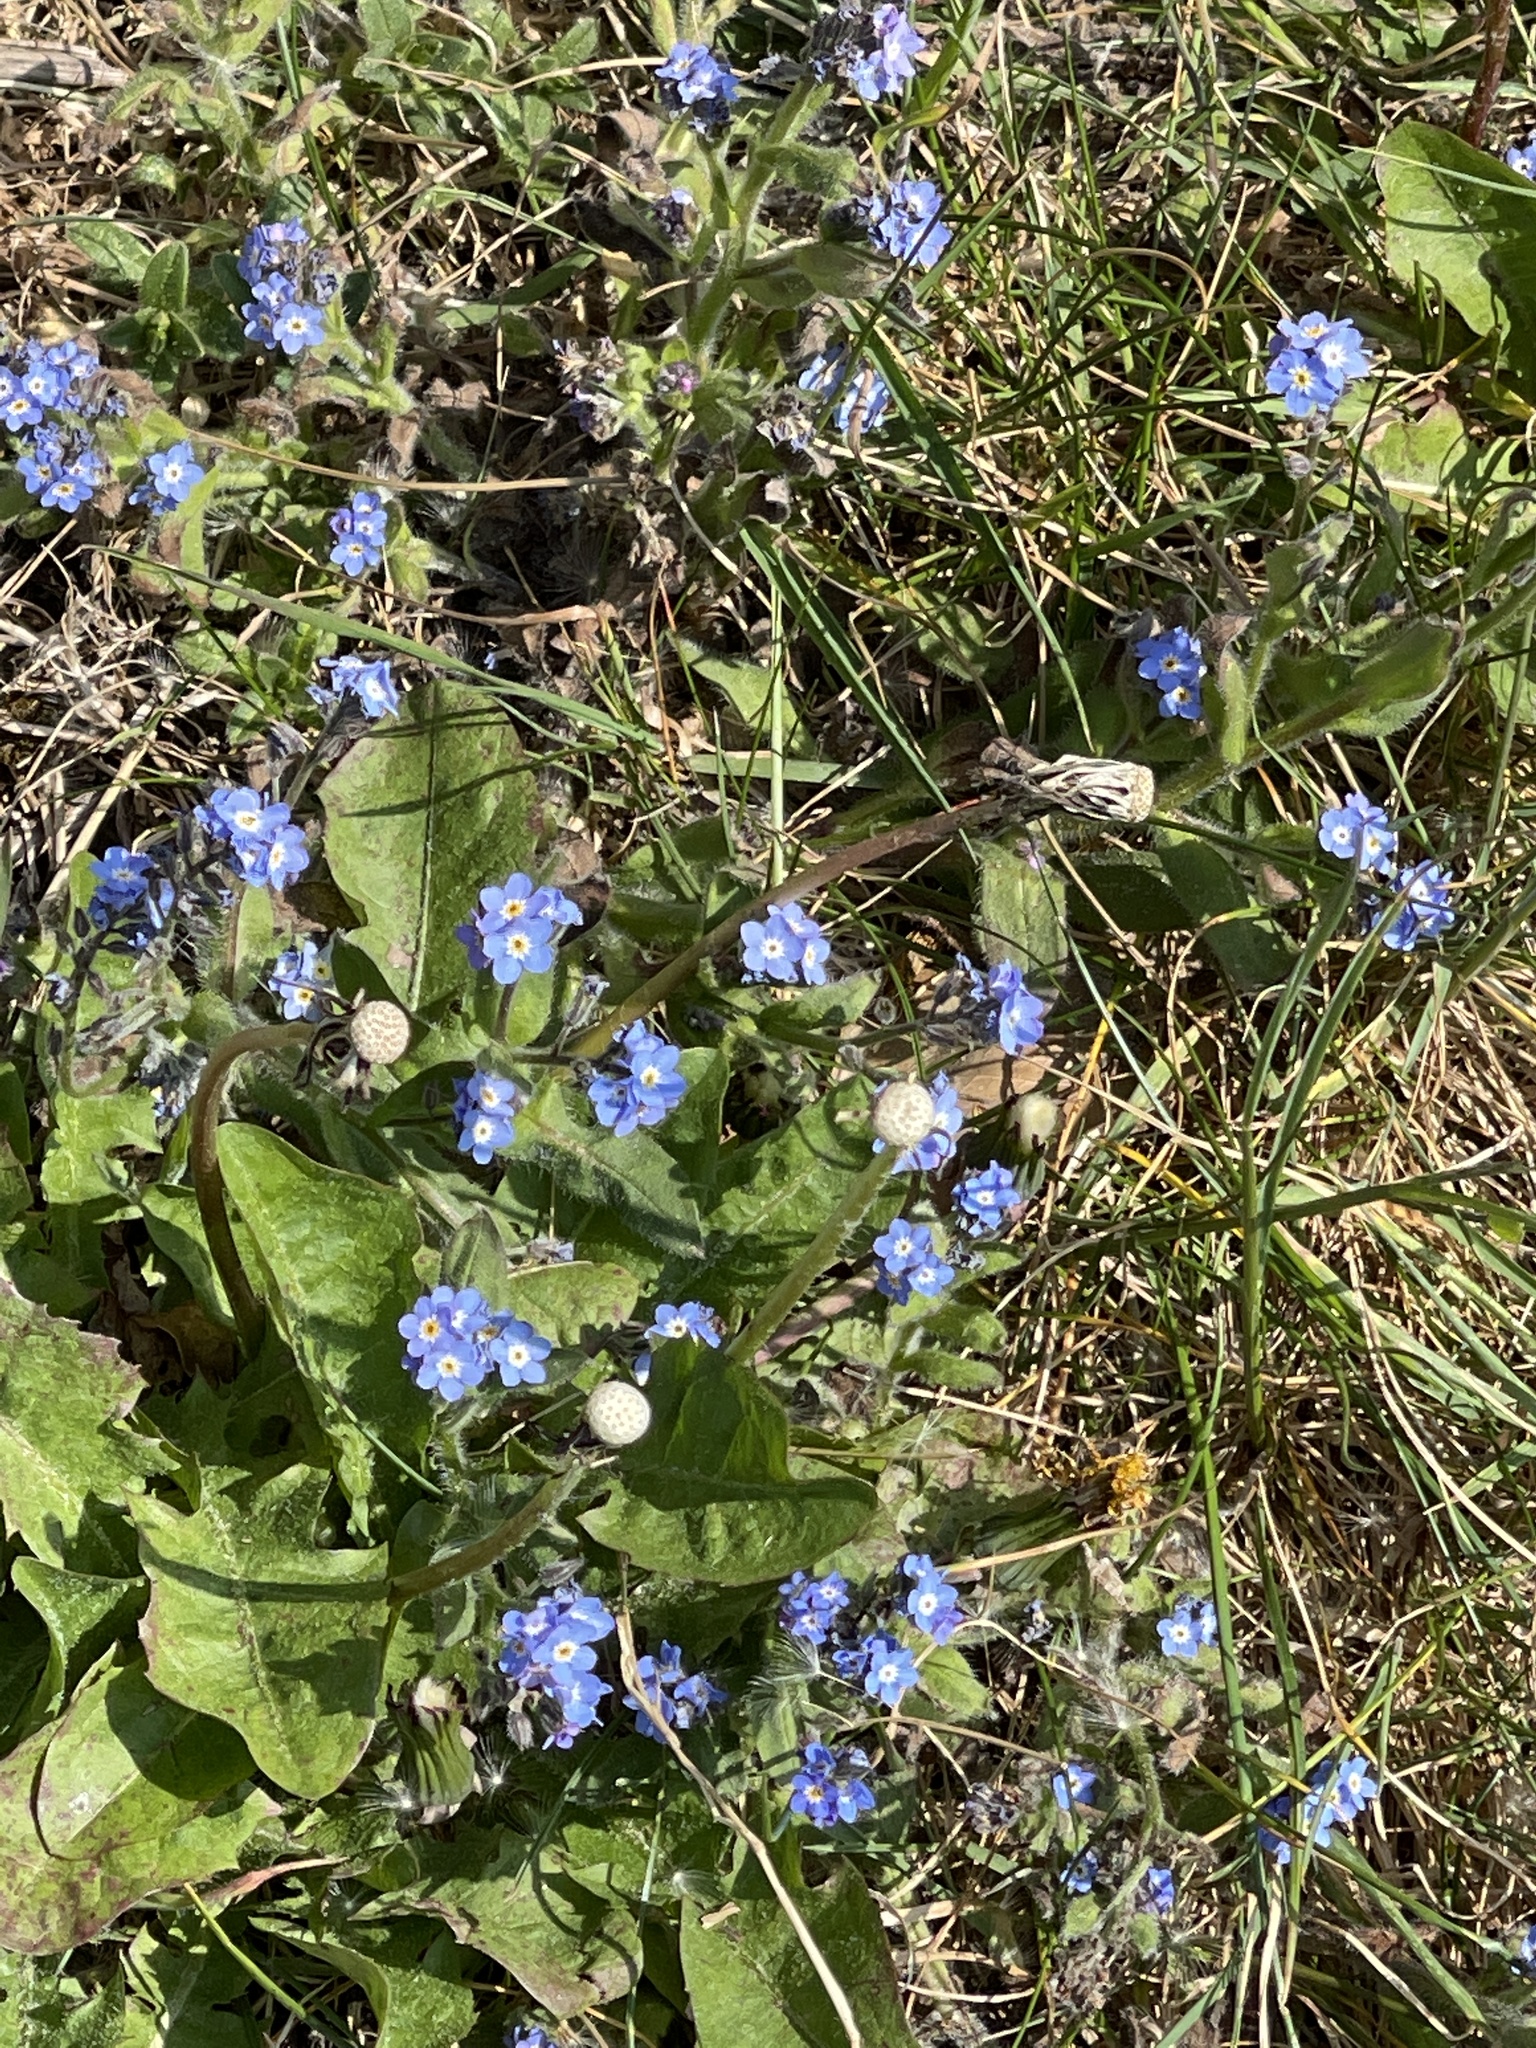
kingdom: Plantae
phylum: Tracheophyta
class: Magnoliopsida
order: Boraginales
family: Boraginaceae
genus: Myosotis
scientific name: Myosotis sylvatica
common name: Wood forget-me-not
